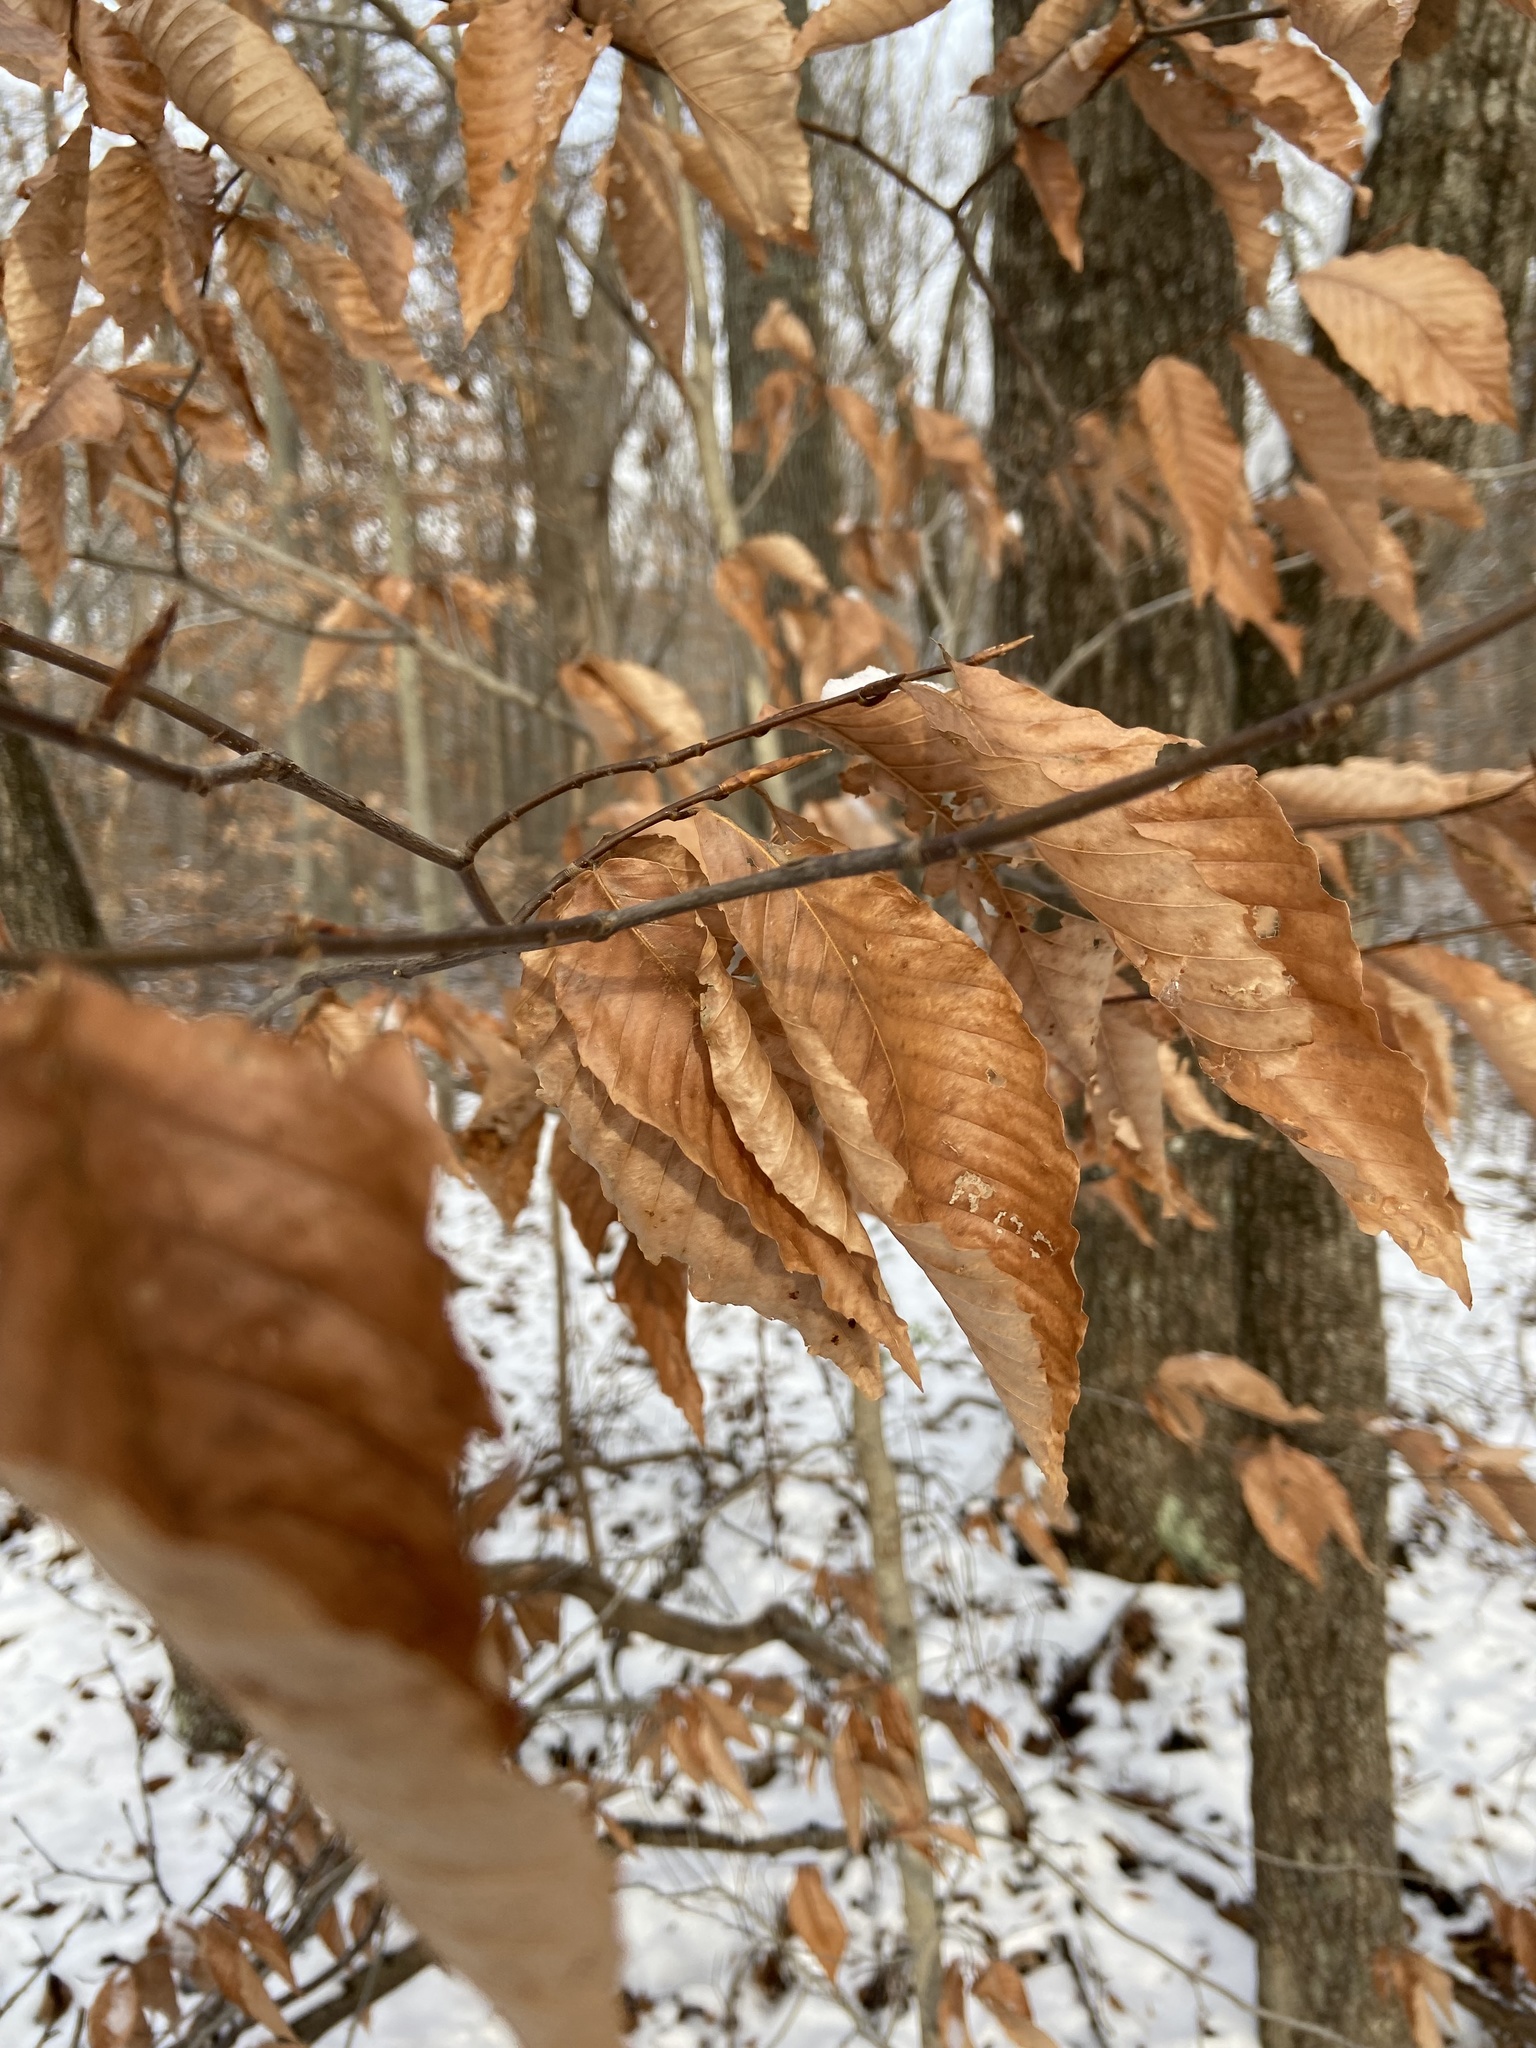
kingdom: Plantae
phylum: Tracheophyta
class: Magnoliopsida
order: Fagales
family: Fagaceae
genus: Fagus
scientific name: Fagus grandifolia
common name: American beech
